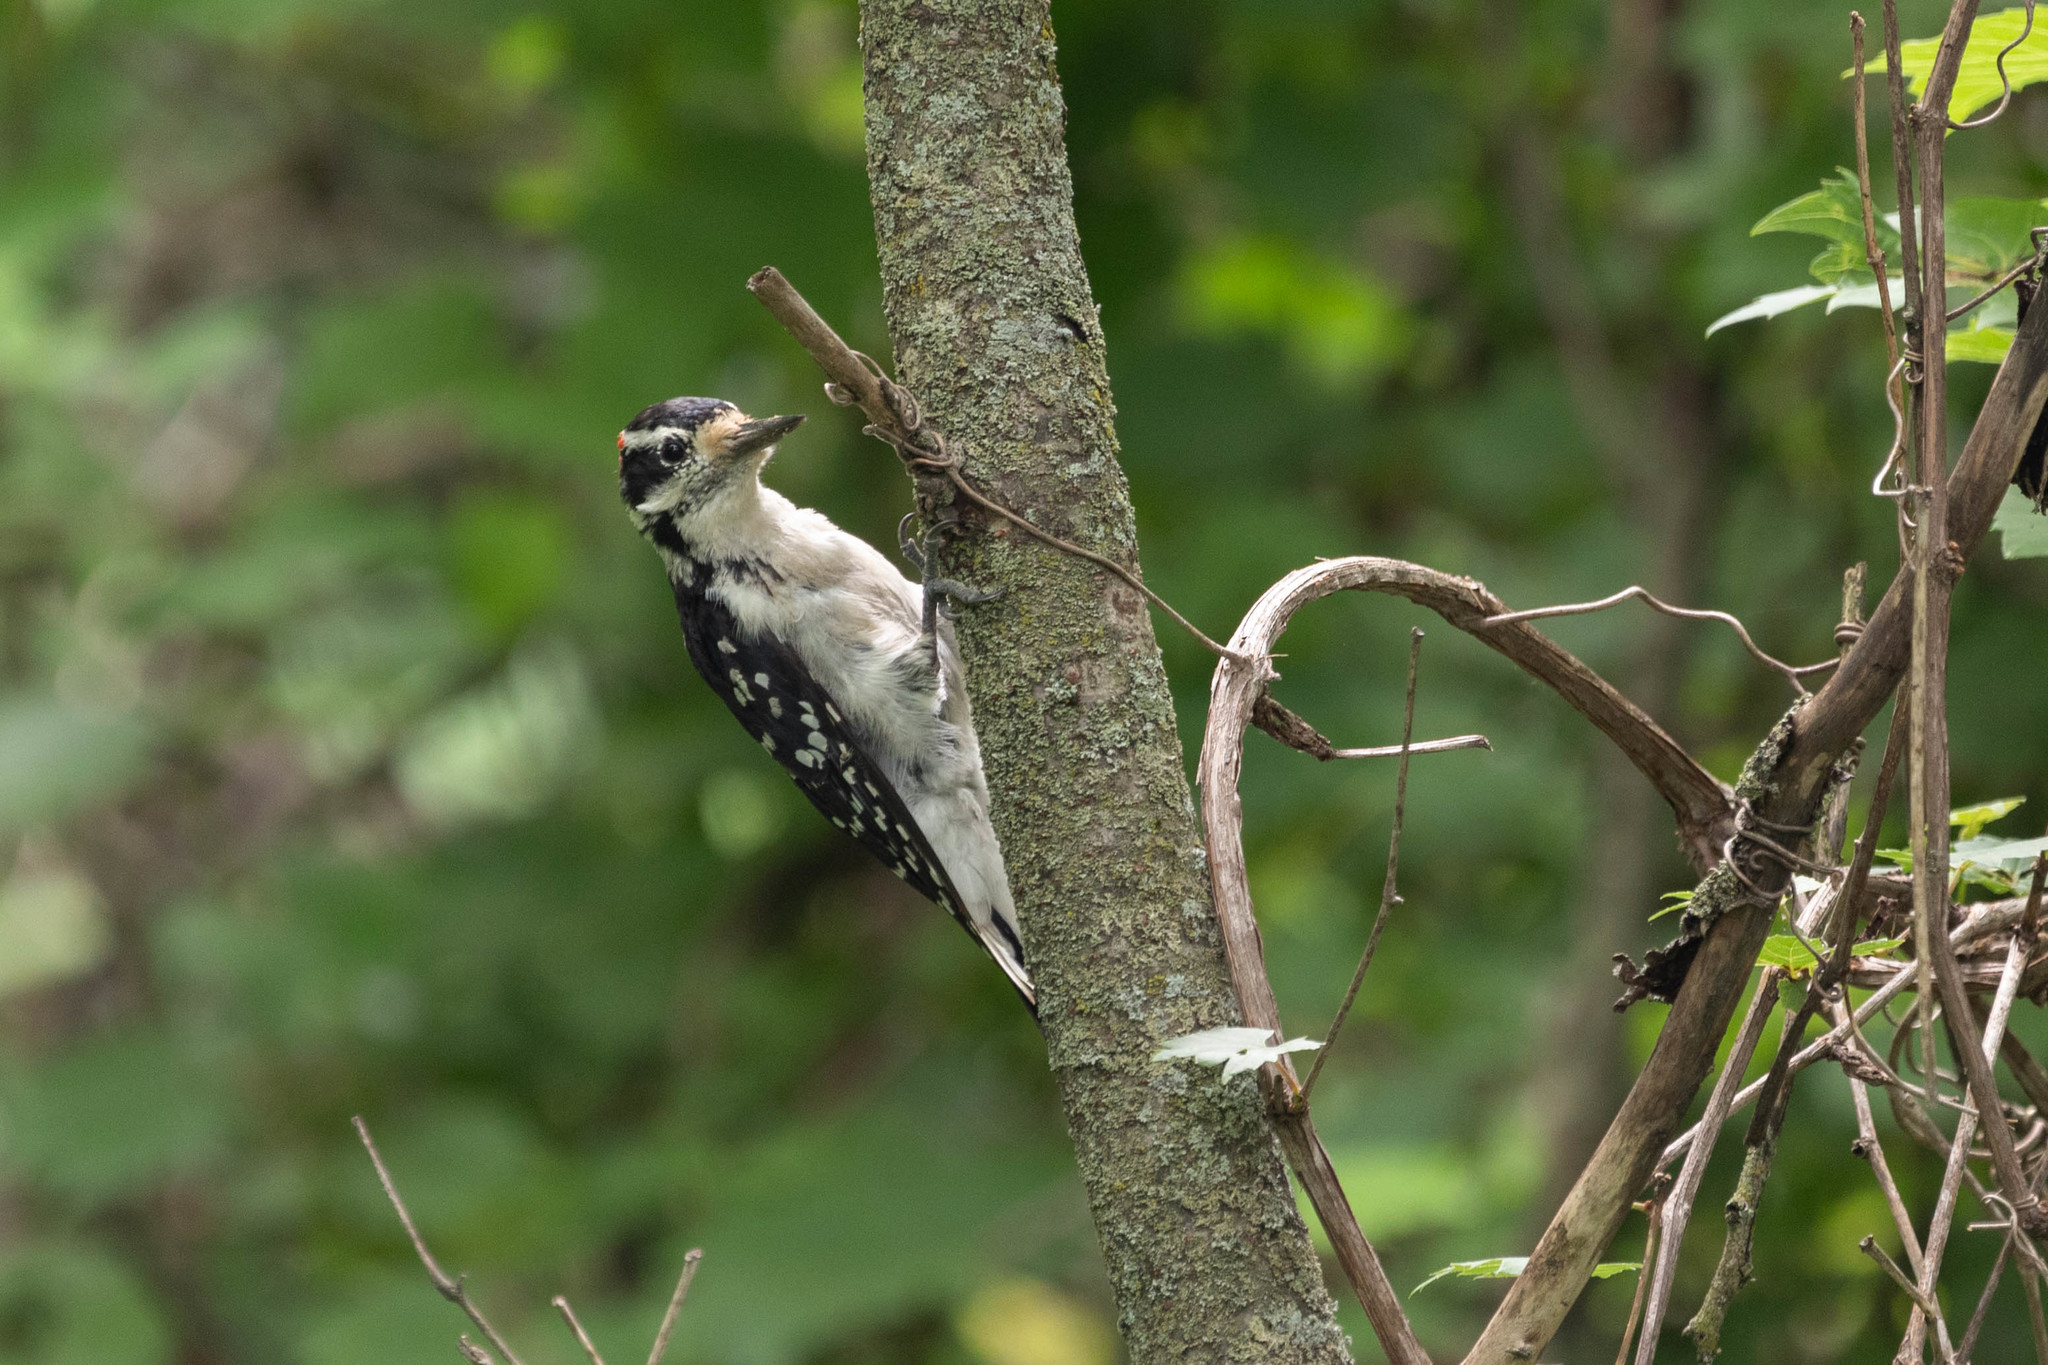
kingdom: Animalia
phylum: Chordata
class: Aves
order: Piciformes
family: Picidae
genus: Leuconotopicus
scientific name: Leuconotopicus villosus
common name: Hairy woodpecker
